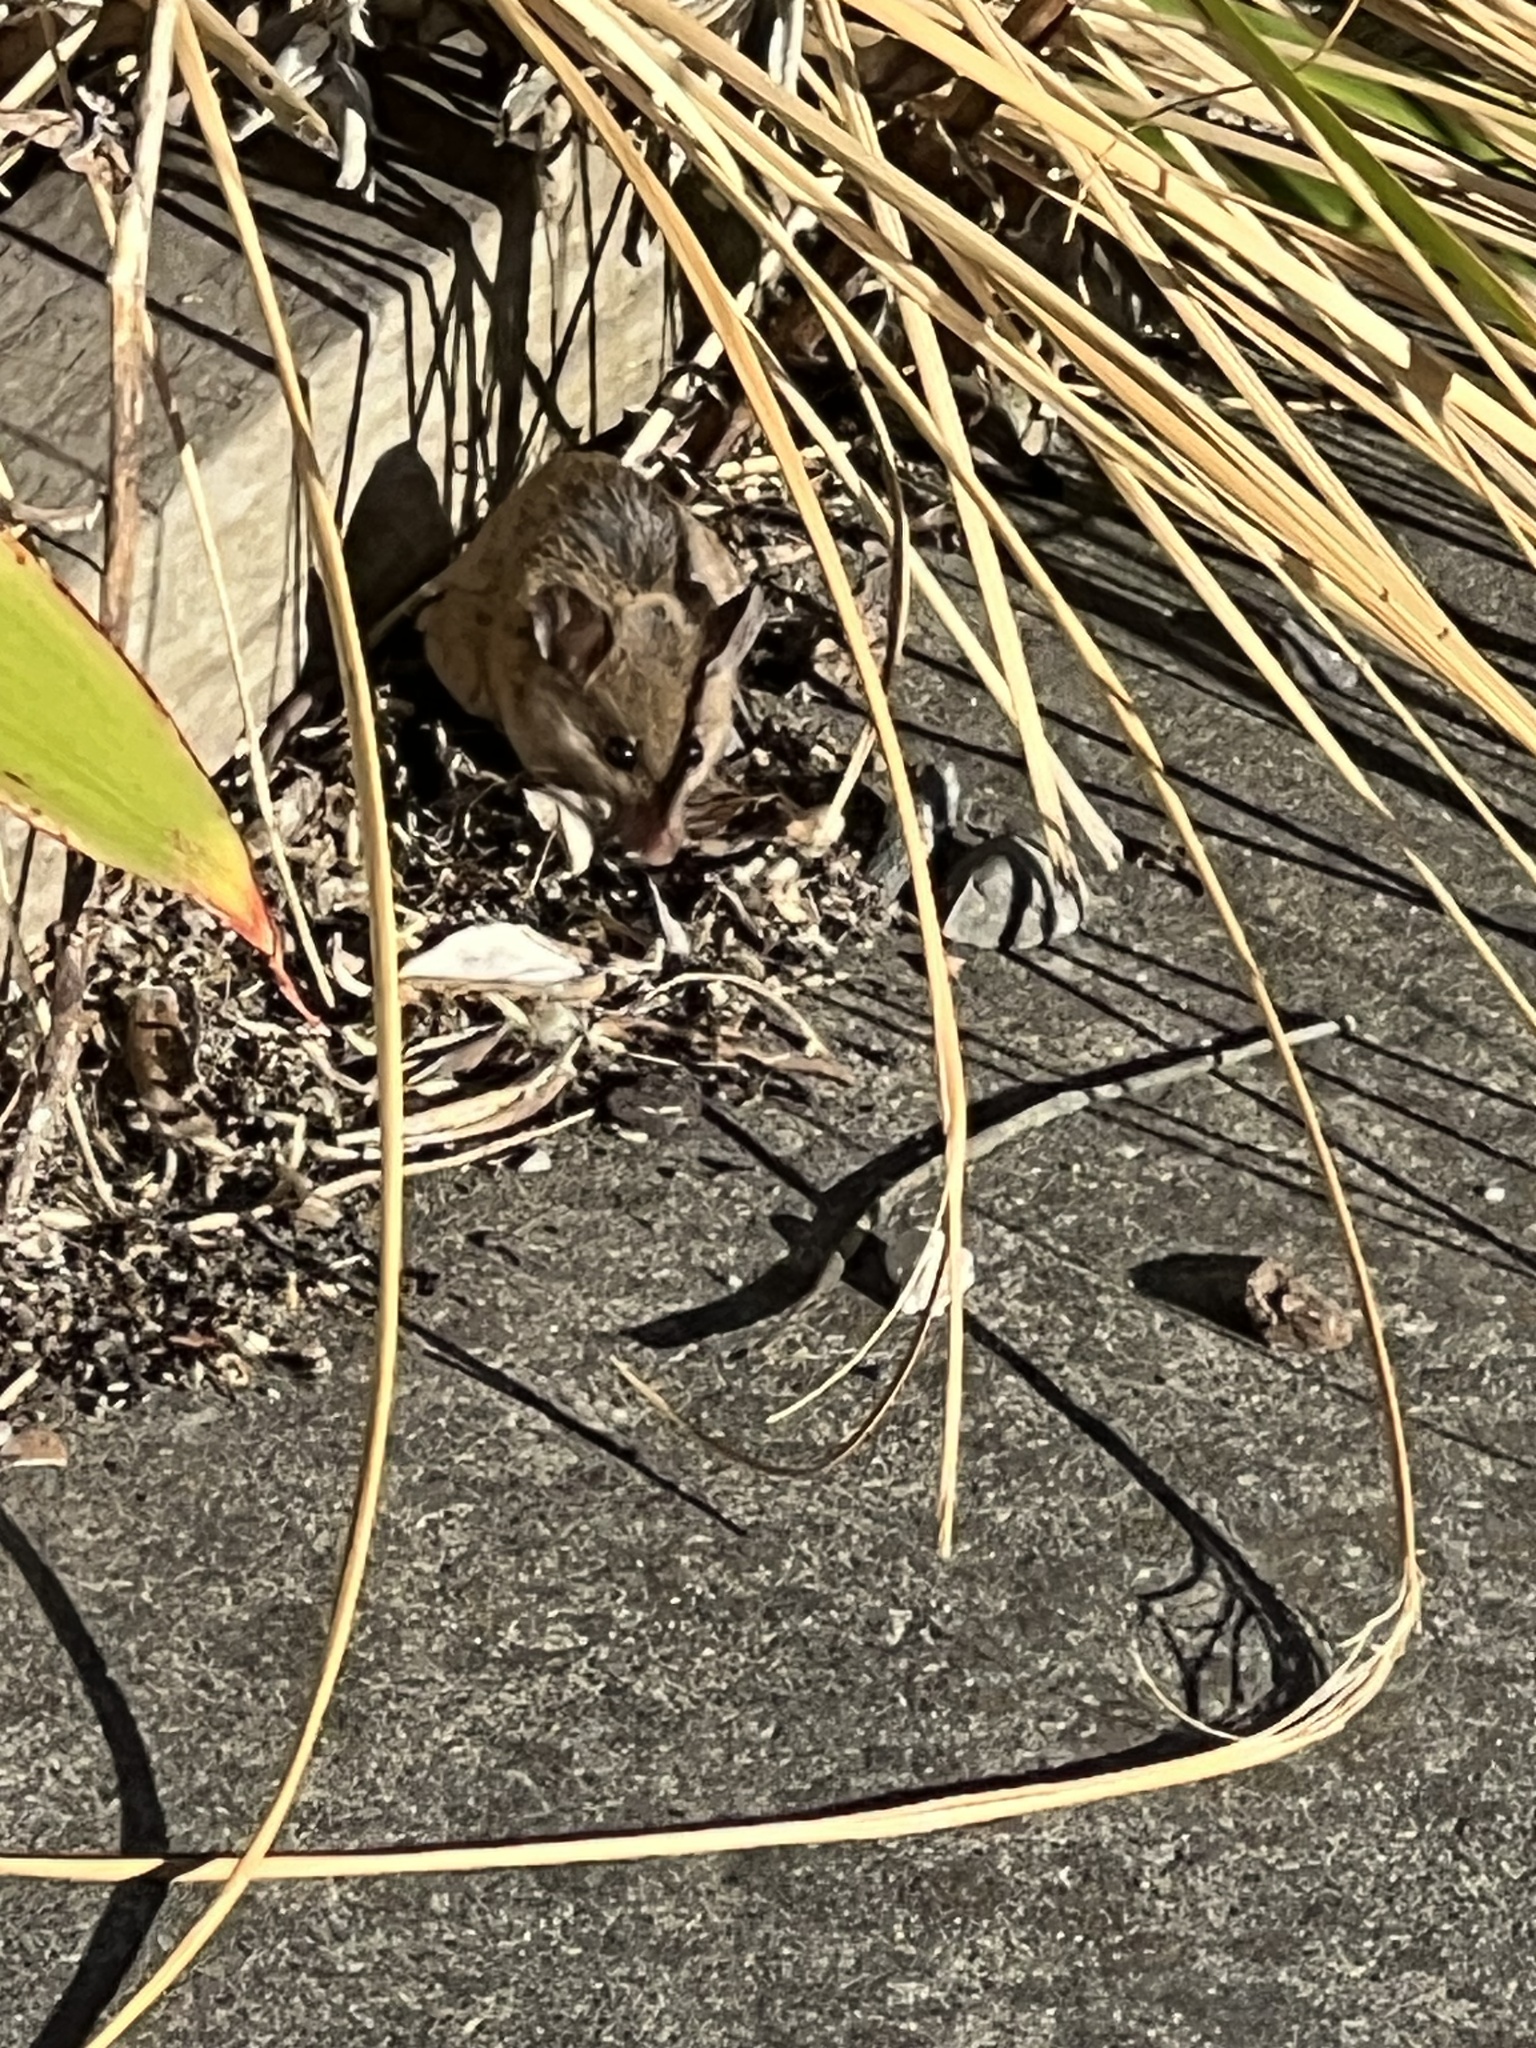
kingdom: Animalia
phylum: Chordata
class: Mammalia
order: Rodentia
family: Muridae
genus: Mus
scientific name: Mus musculus
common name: House mouse
